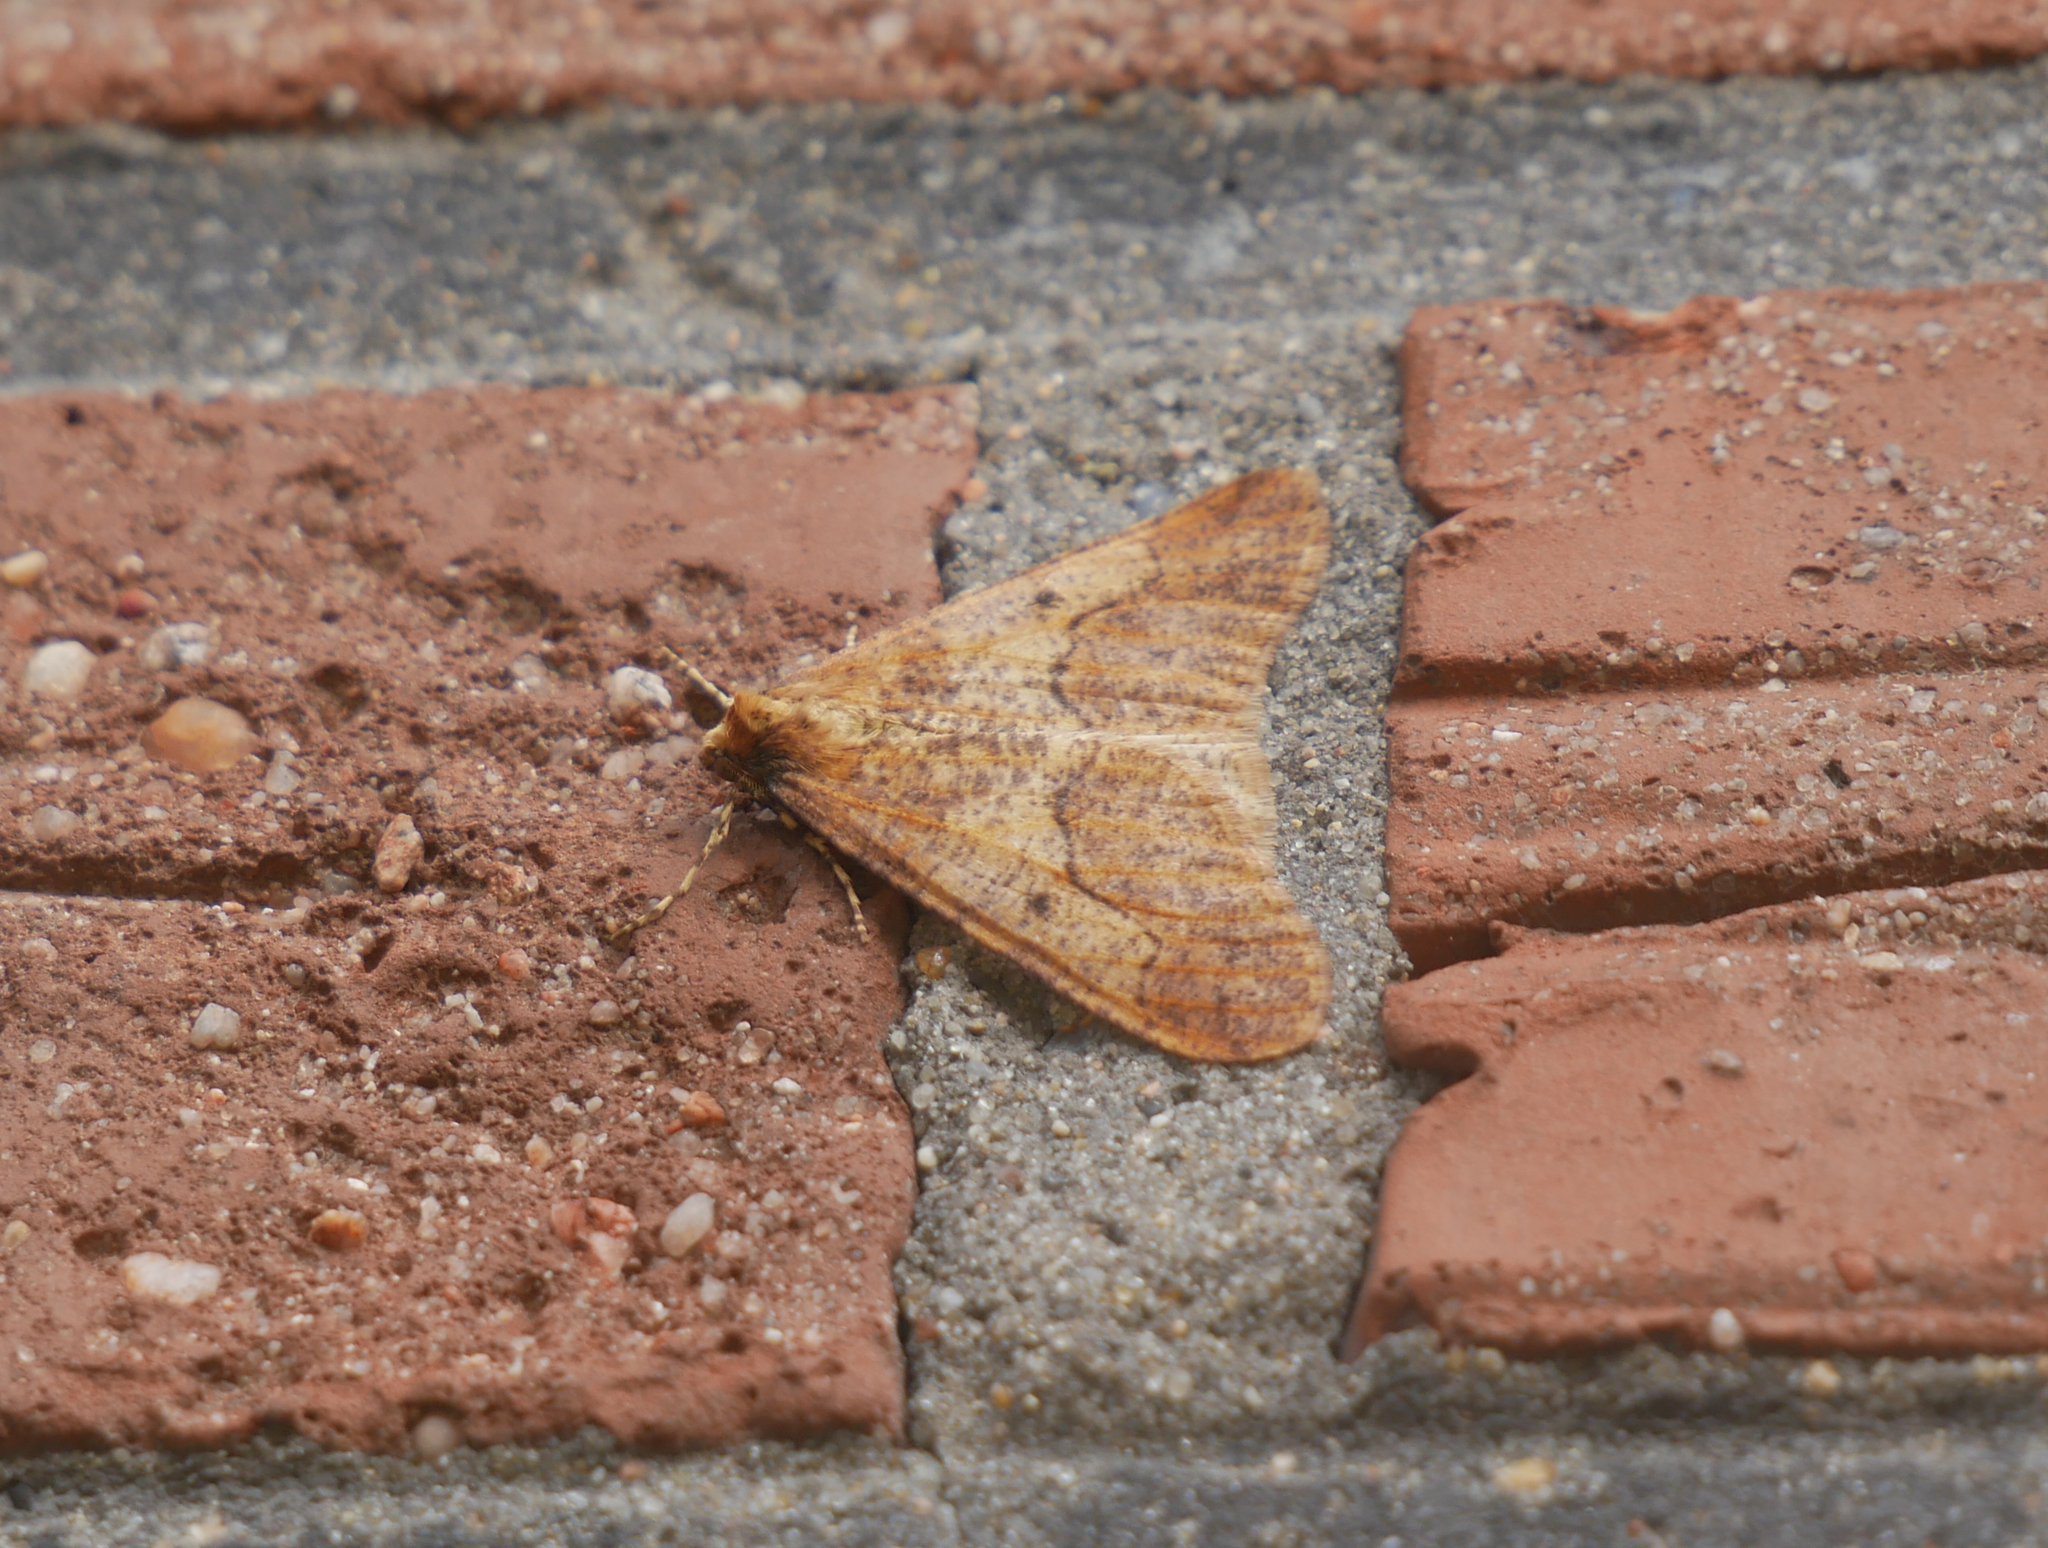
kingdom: Animalia
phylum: Arthropoda
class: Insecta
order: Lepidoptera
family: Geometridae
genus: Erannis
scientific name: Erannis defoliaria
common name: Mottled umber
